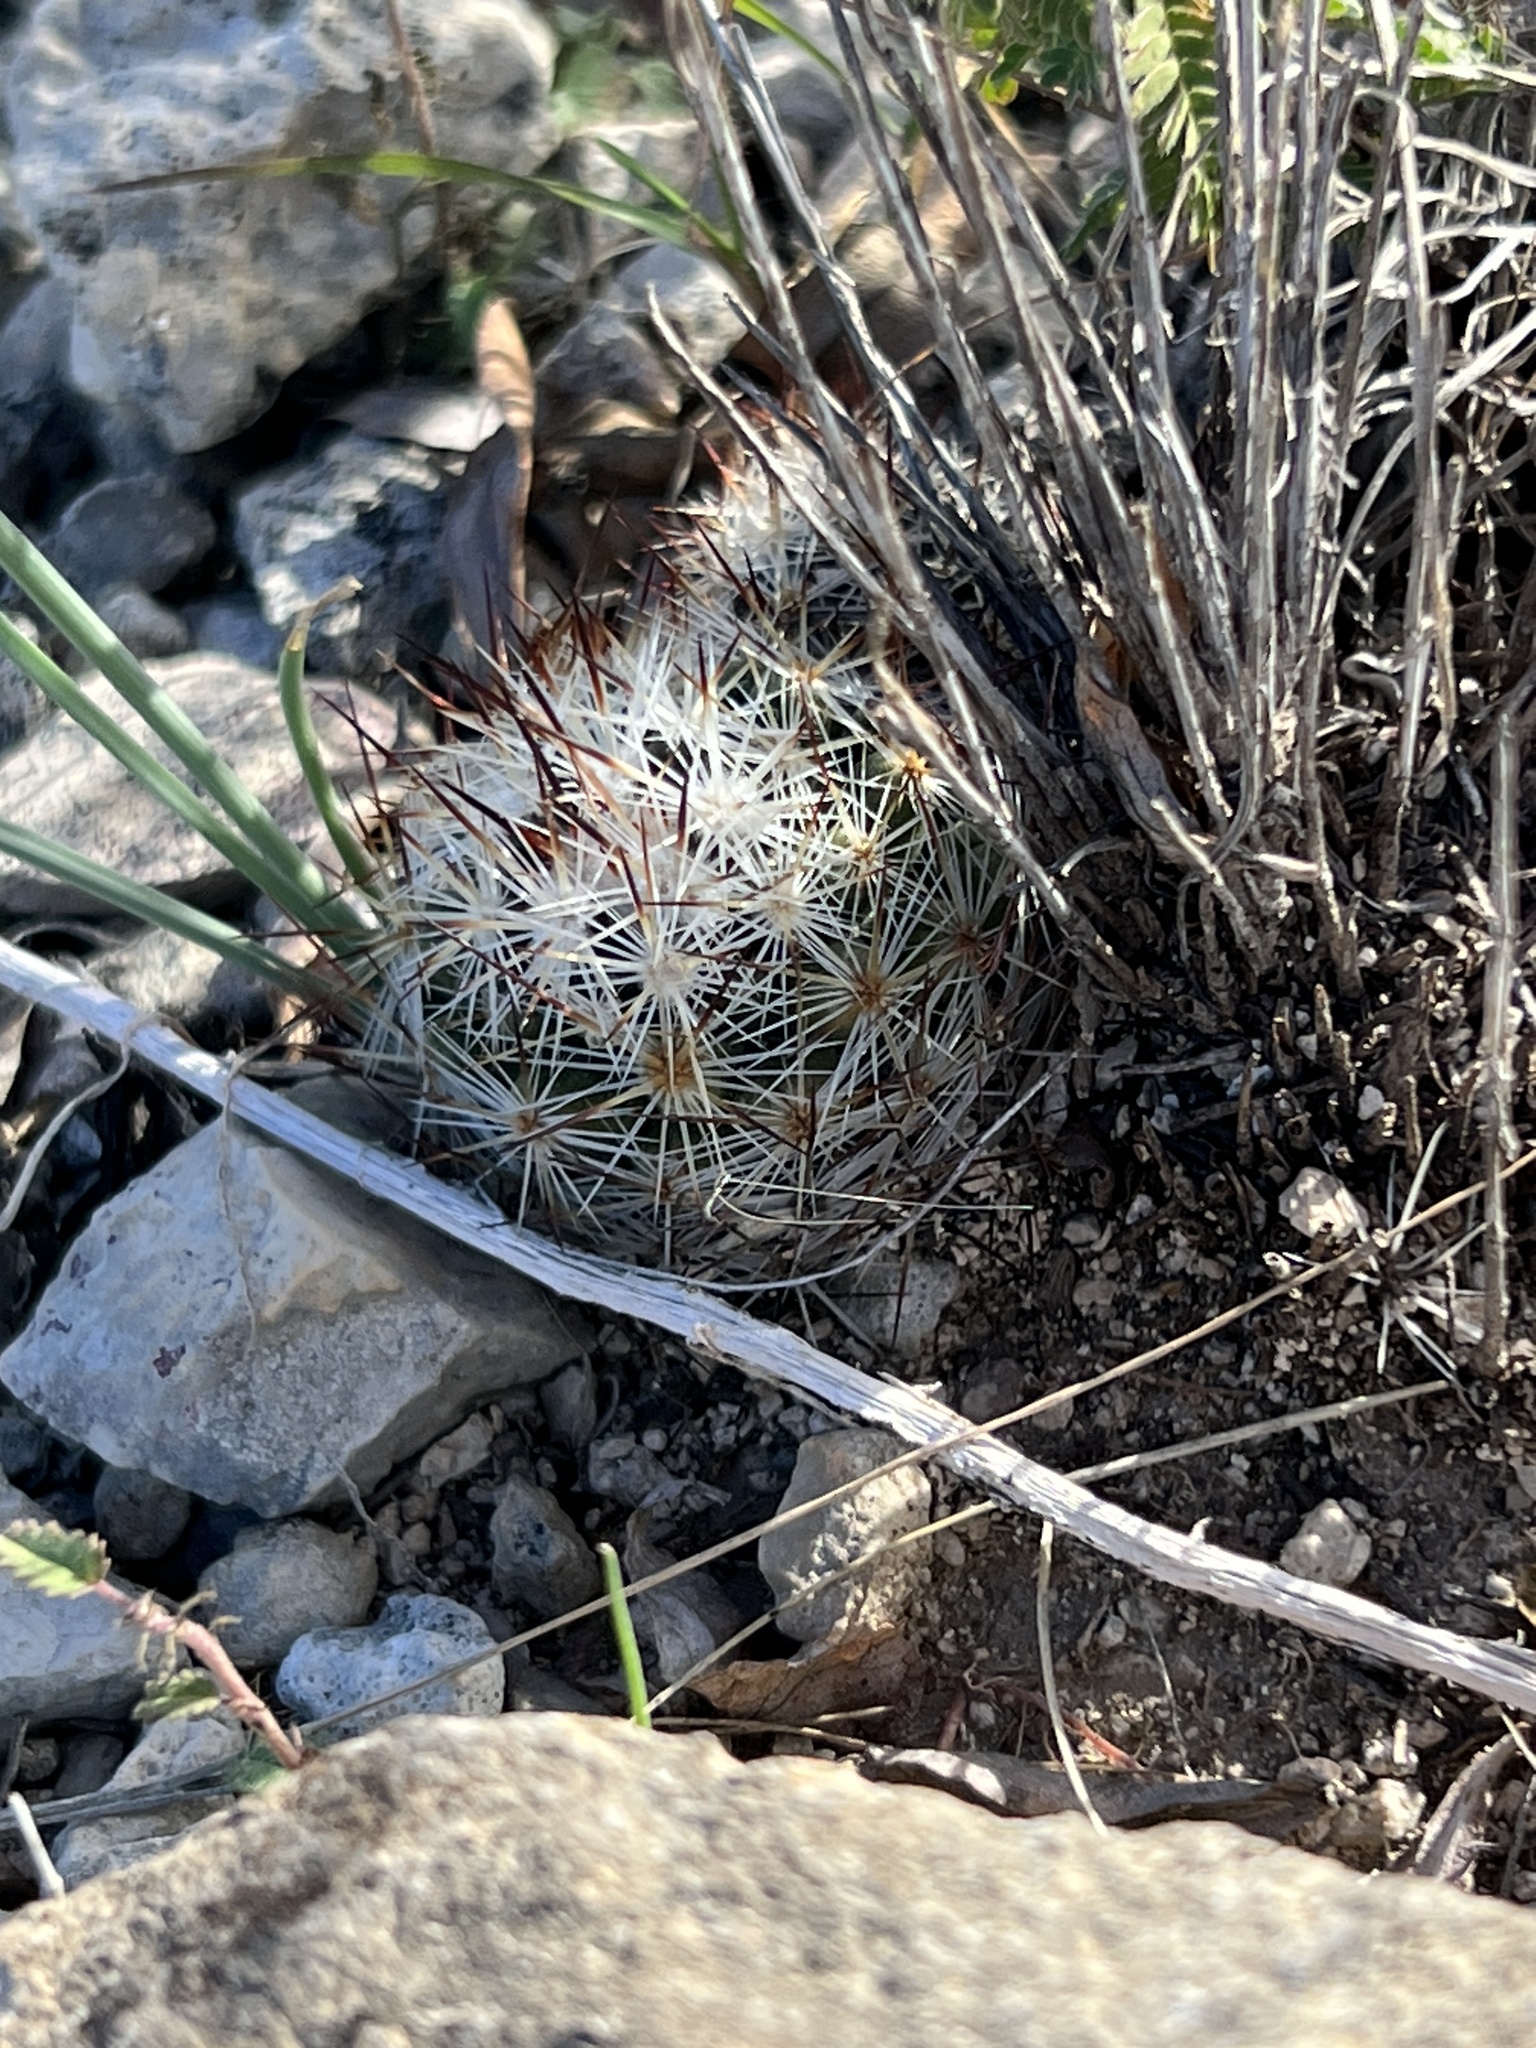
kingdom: Plantae
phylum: Tracheophyta
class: Magnoliopsida
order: Caryophyllales
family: Cactaceae
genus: Pelecyphora
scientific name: Pelecyphora emskoetteriana
